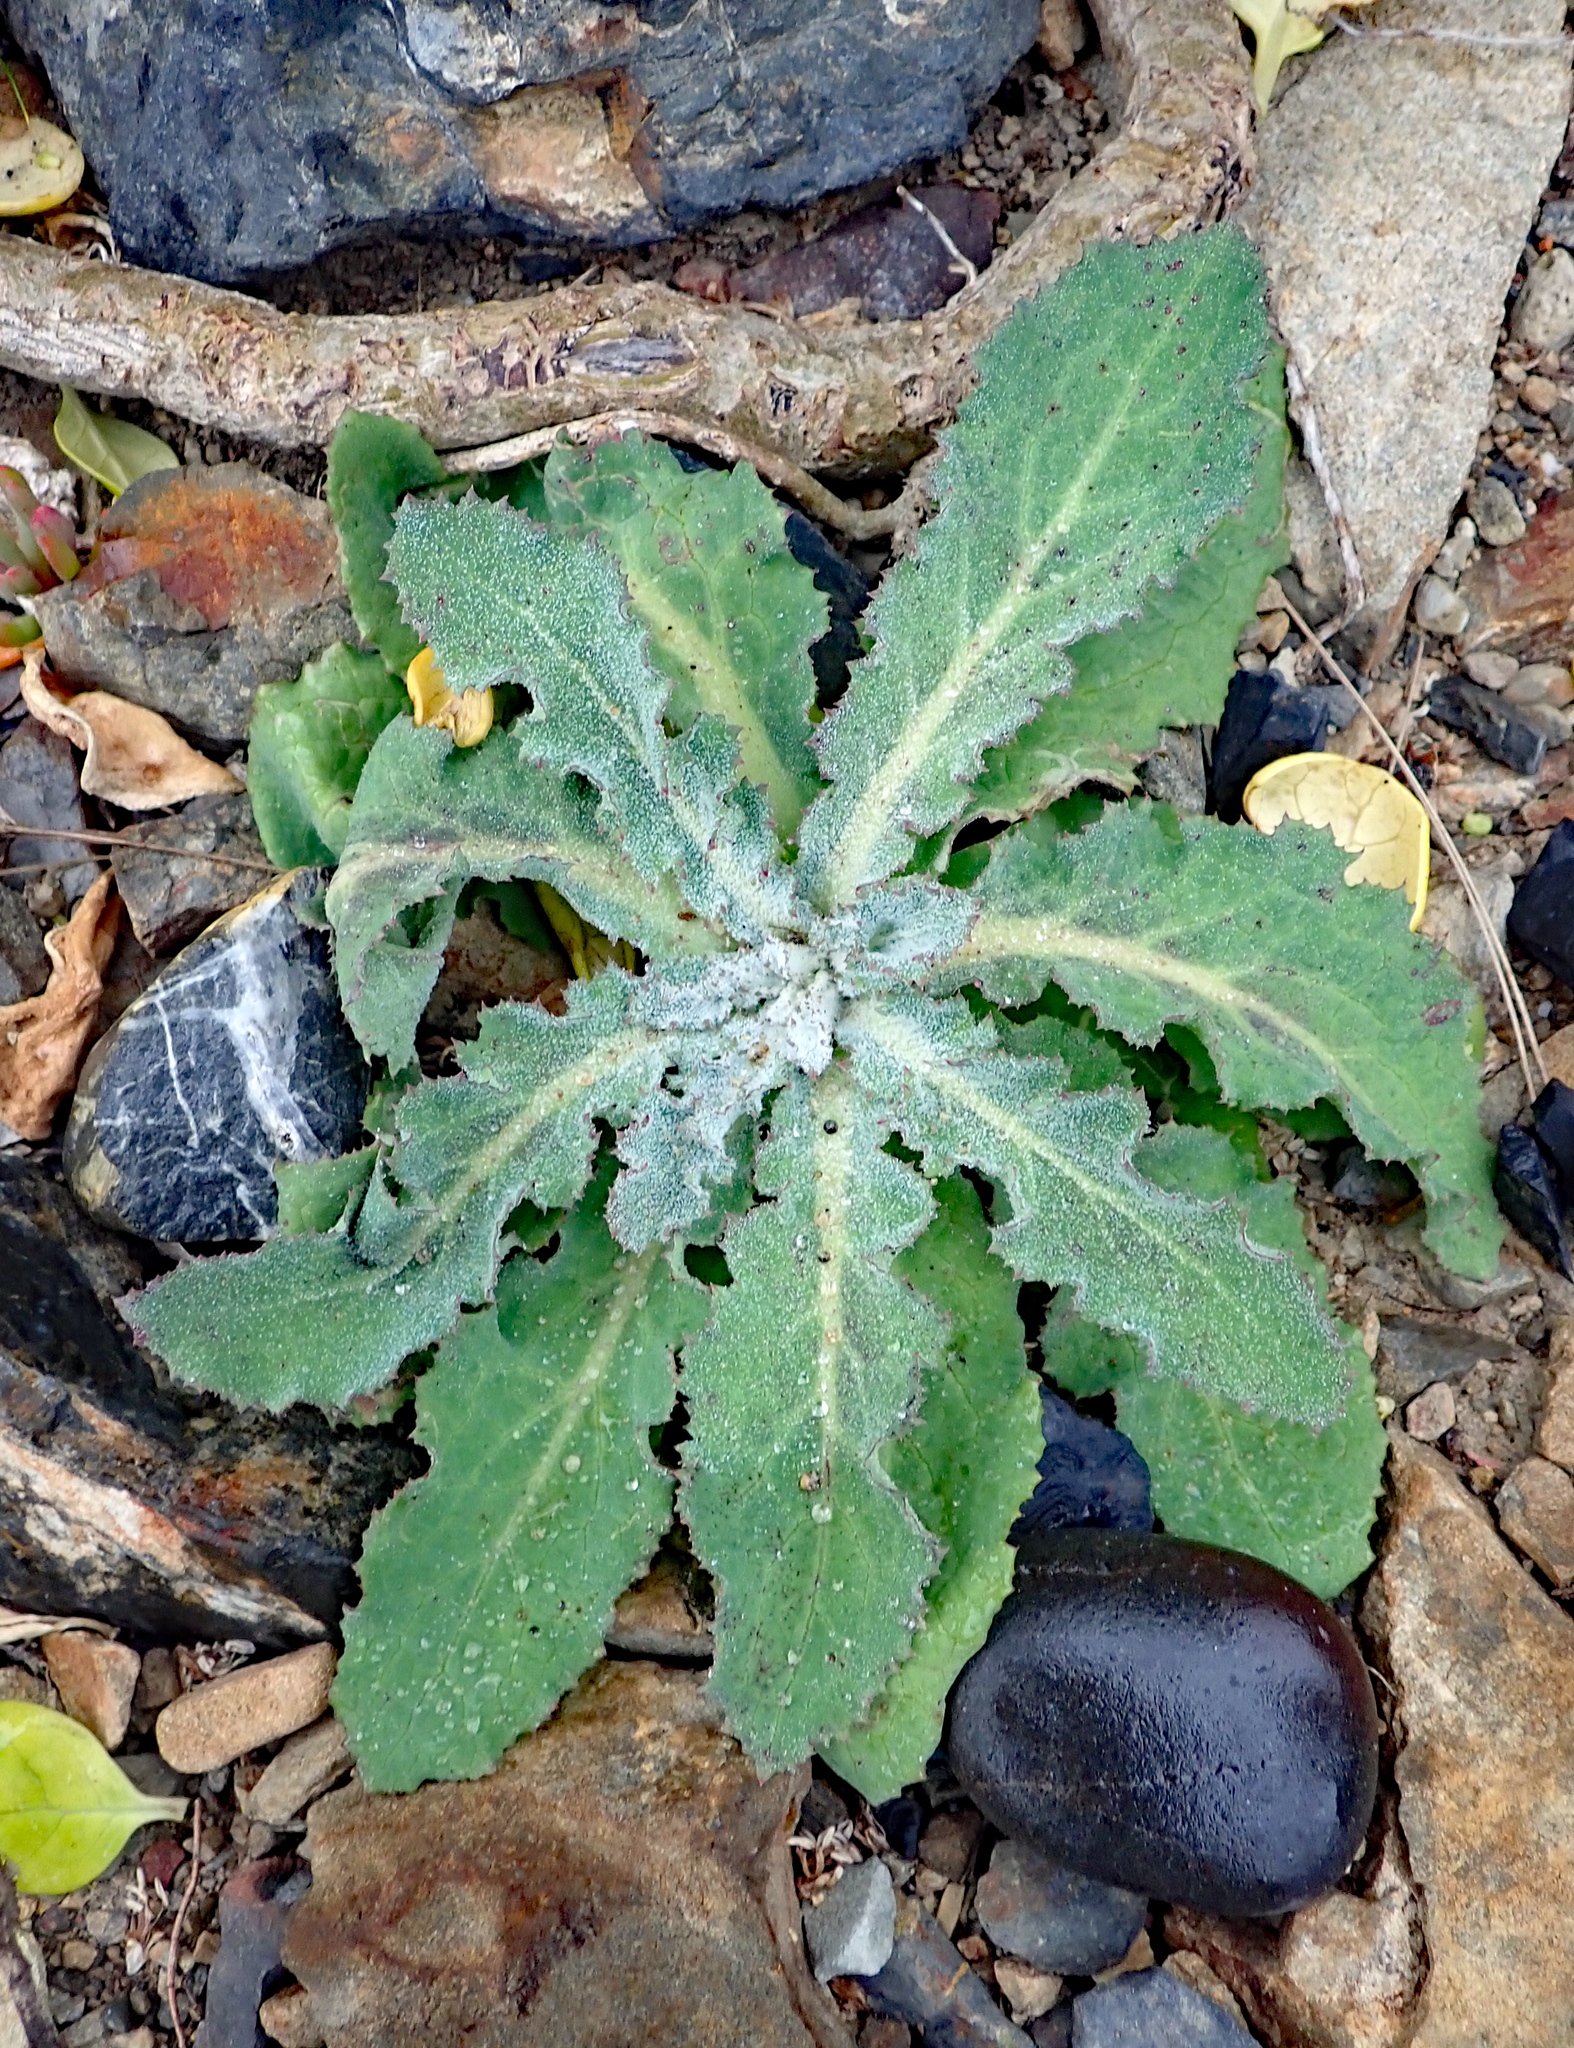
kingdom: Plantae
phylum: Tracheophyta
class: Magnoliopsida
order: Asterales
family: Asteraceae
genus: Sonchus
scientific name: Sonchus kirkii
